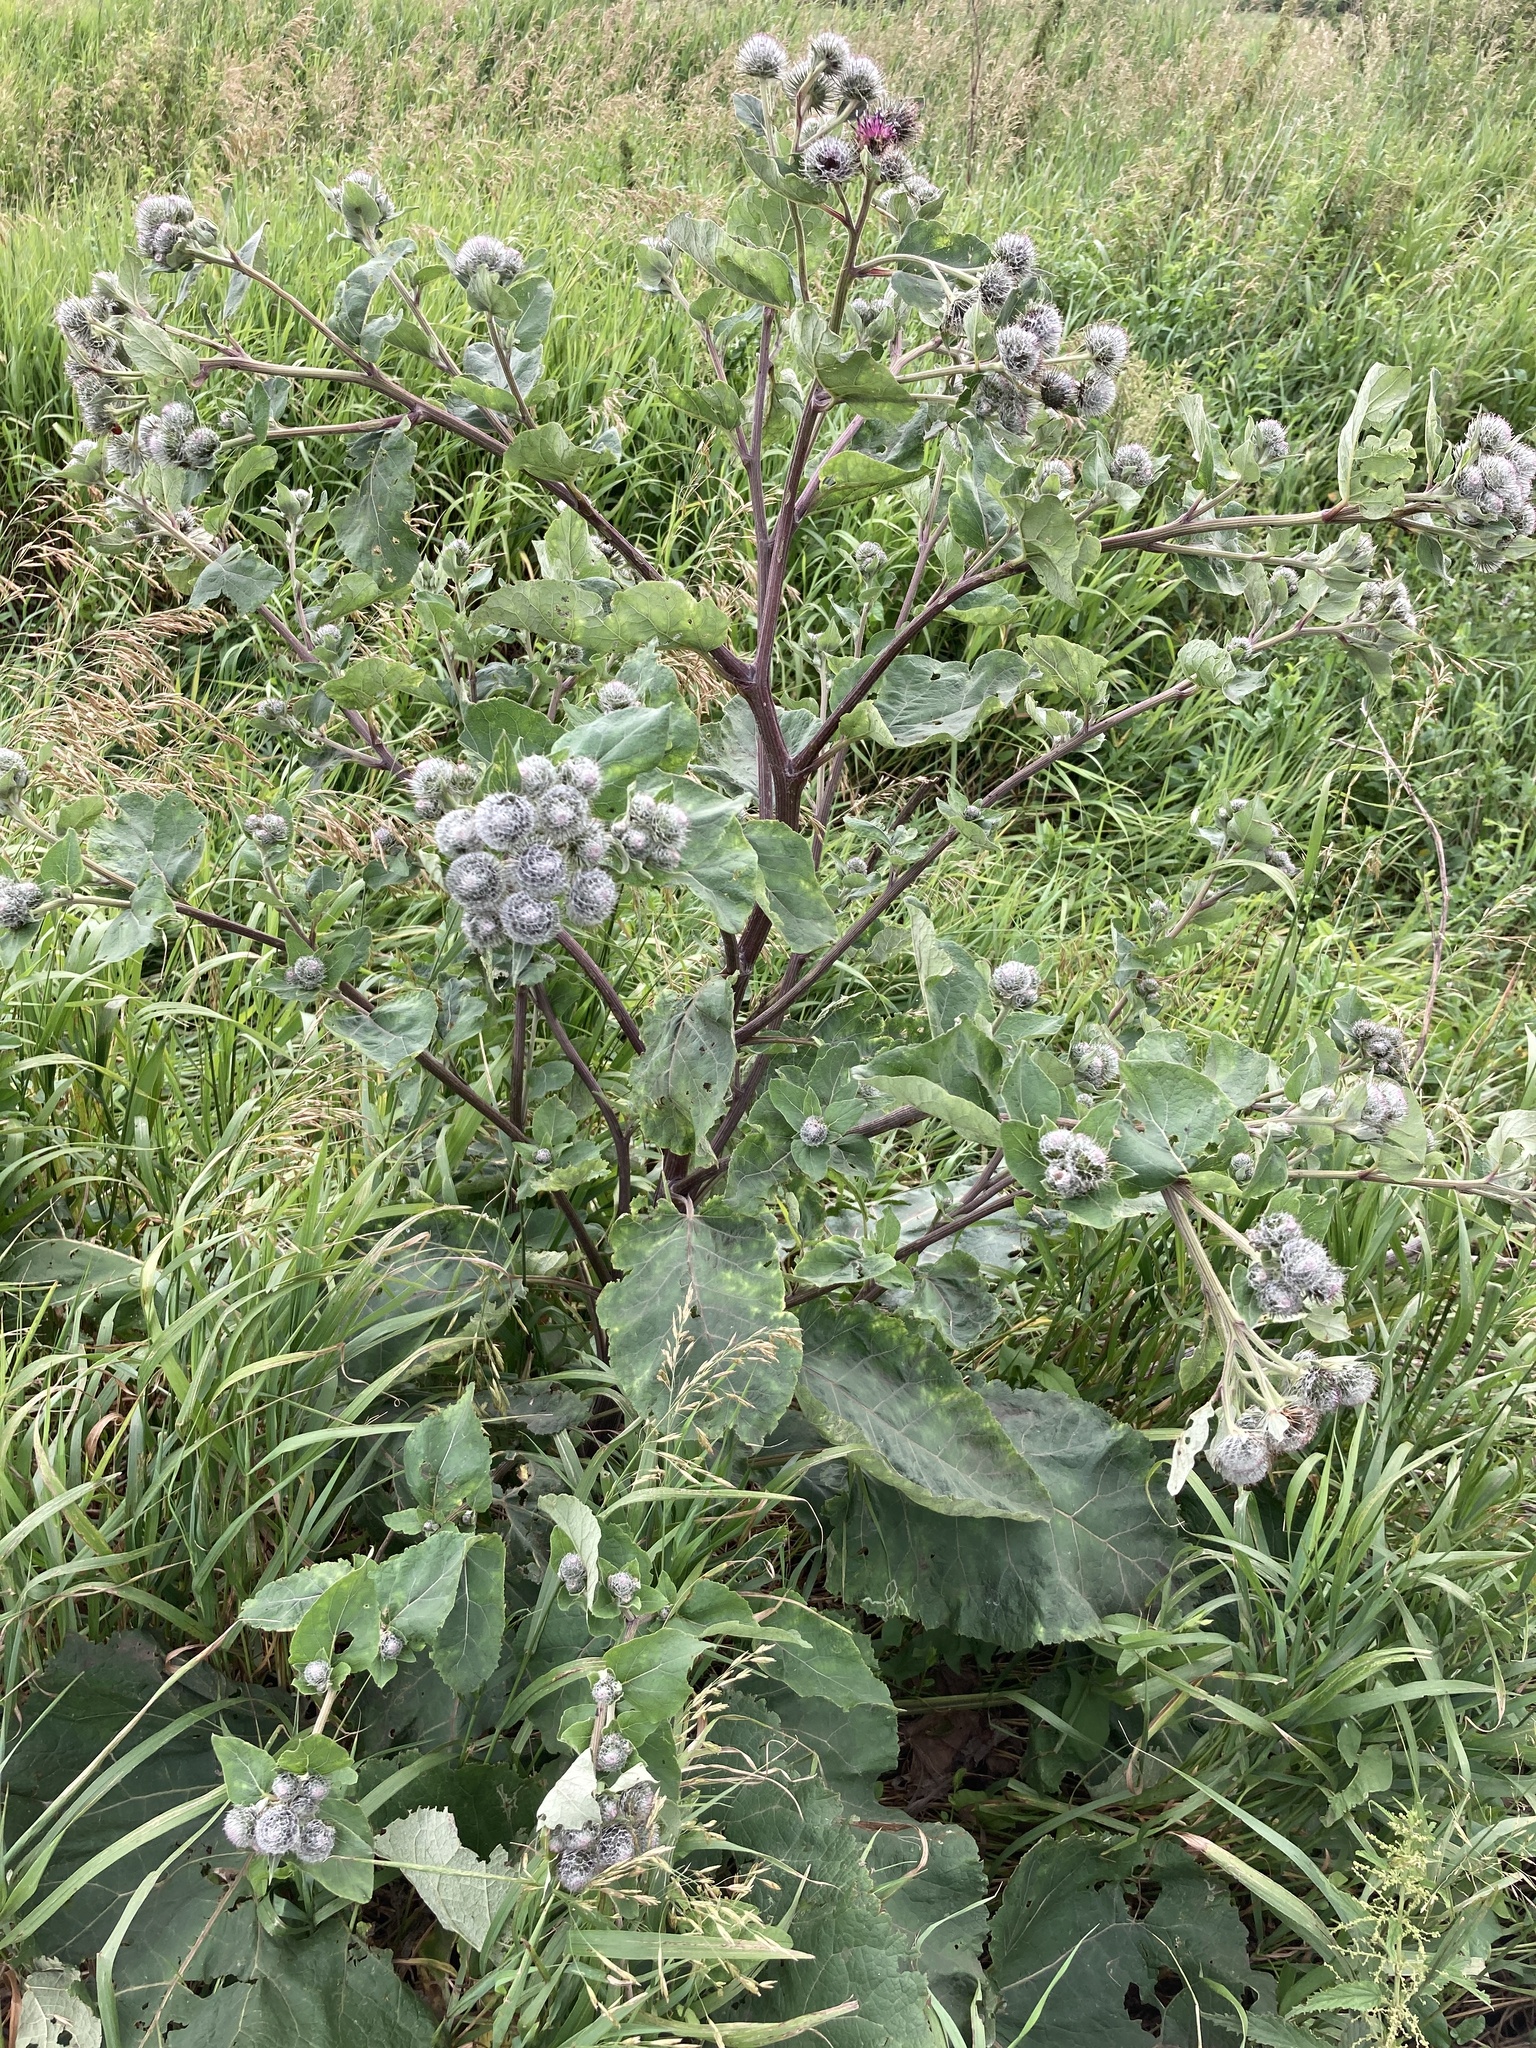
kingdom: Plantae
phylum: Tracheophyta
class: Magnoliopsida
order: Asterales
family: Asteraceae
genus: Arctium
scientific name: Arctium tomentosum
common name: Woolly burdock
